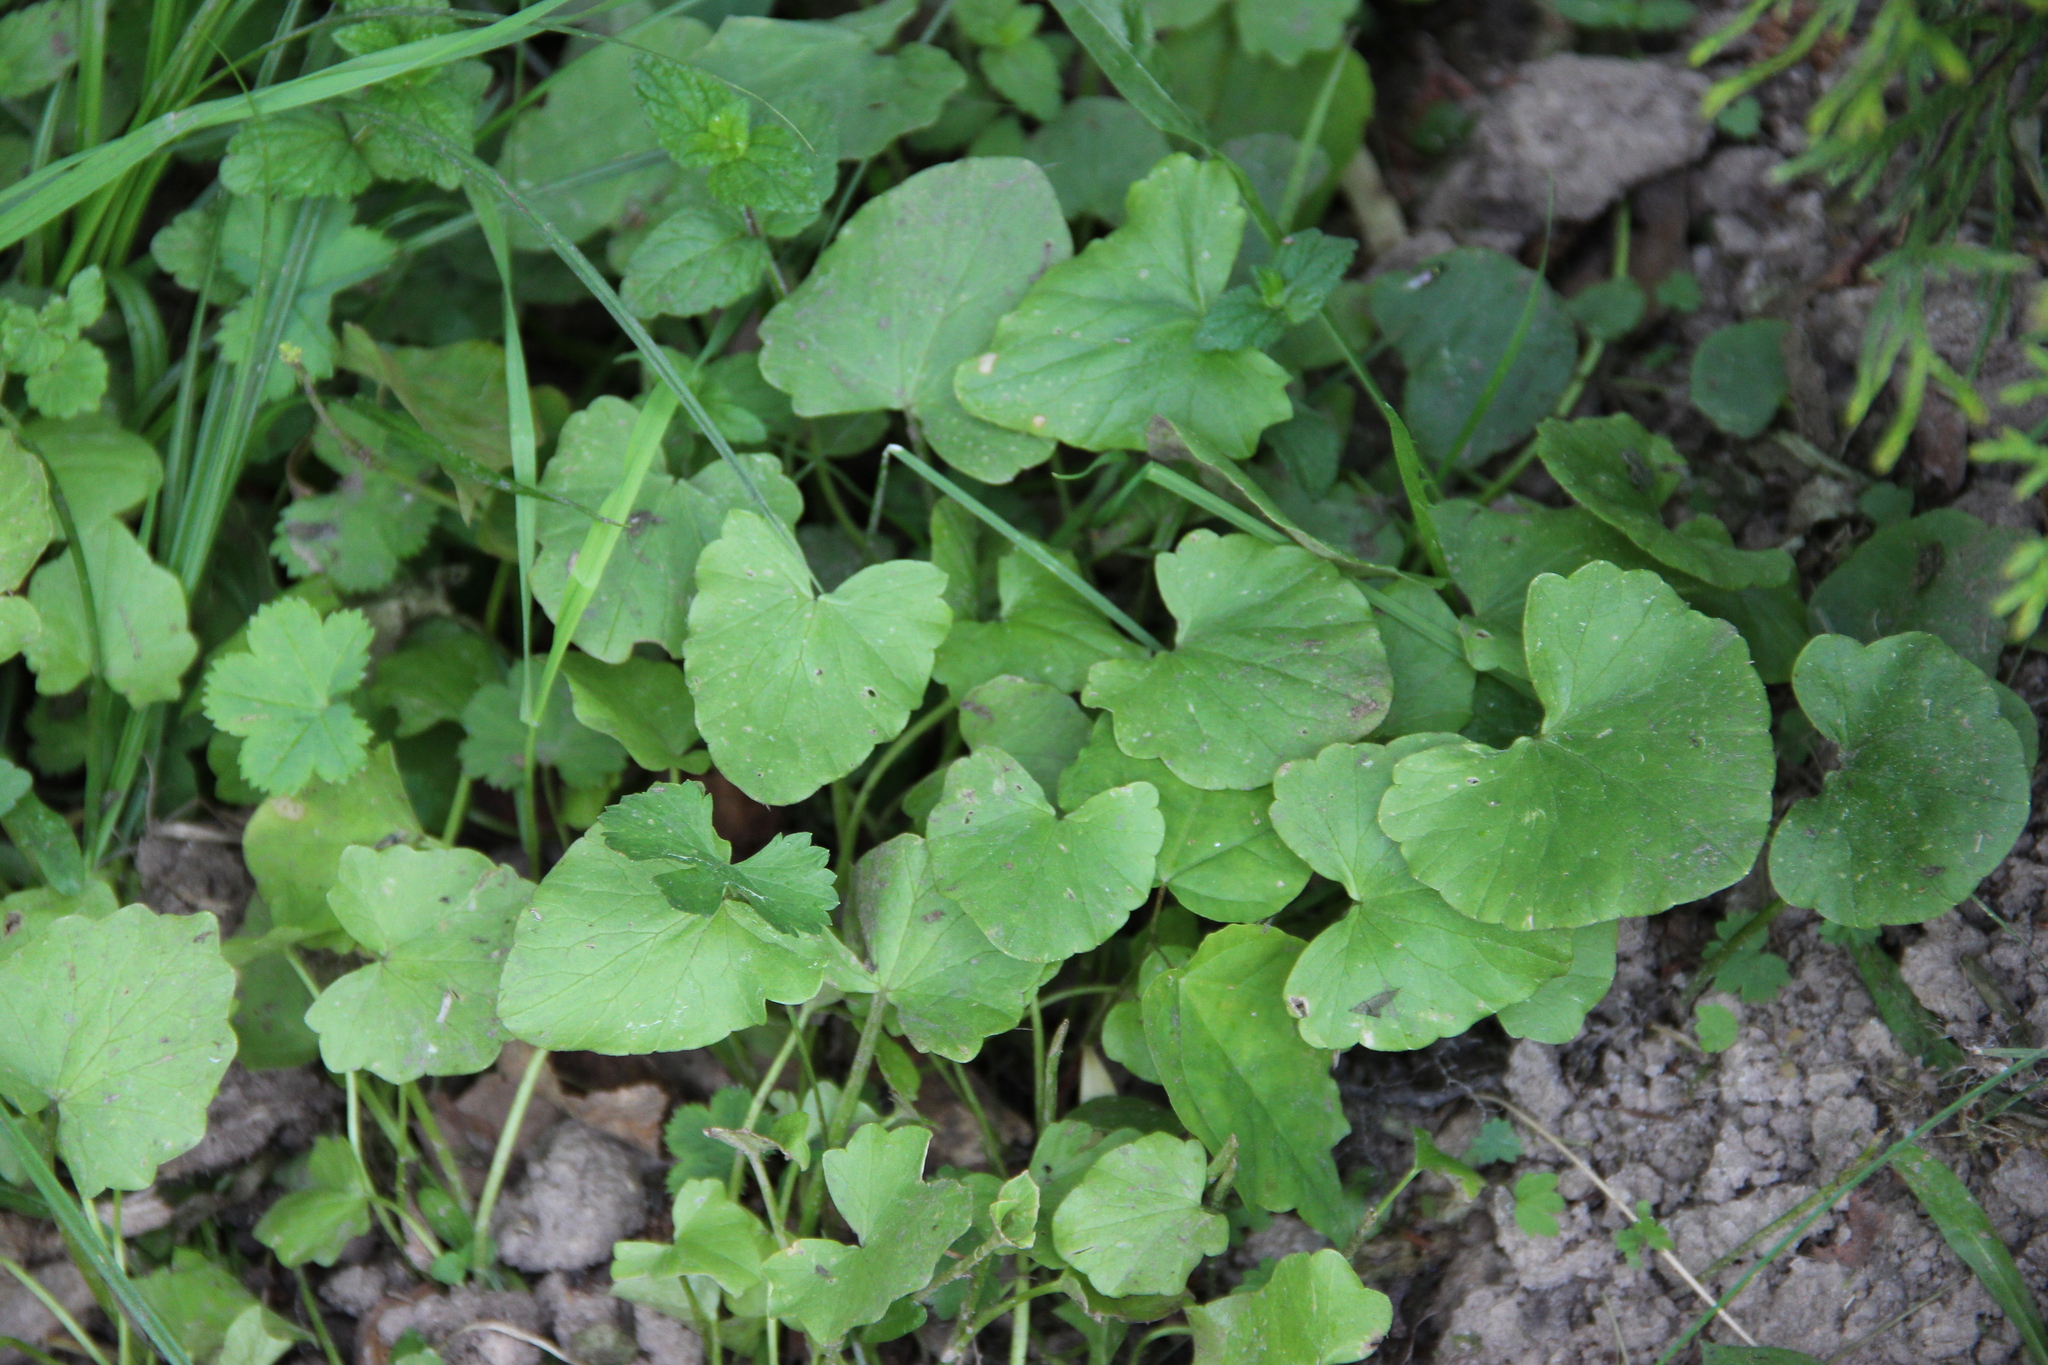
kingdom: Plantae
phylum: Tracheophyta
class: Magnoliopsida
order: Ranunculales
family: Ranunculaceae
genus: Ficaria
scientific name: Ficaria verna
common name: Lesser celandine
